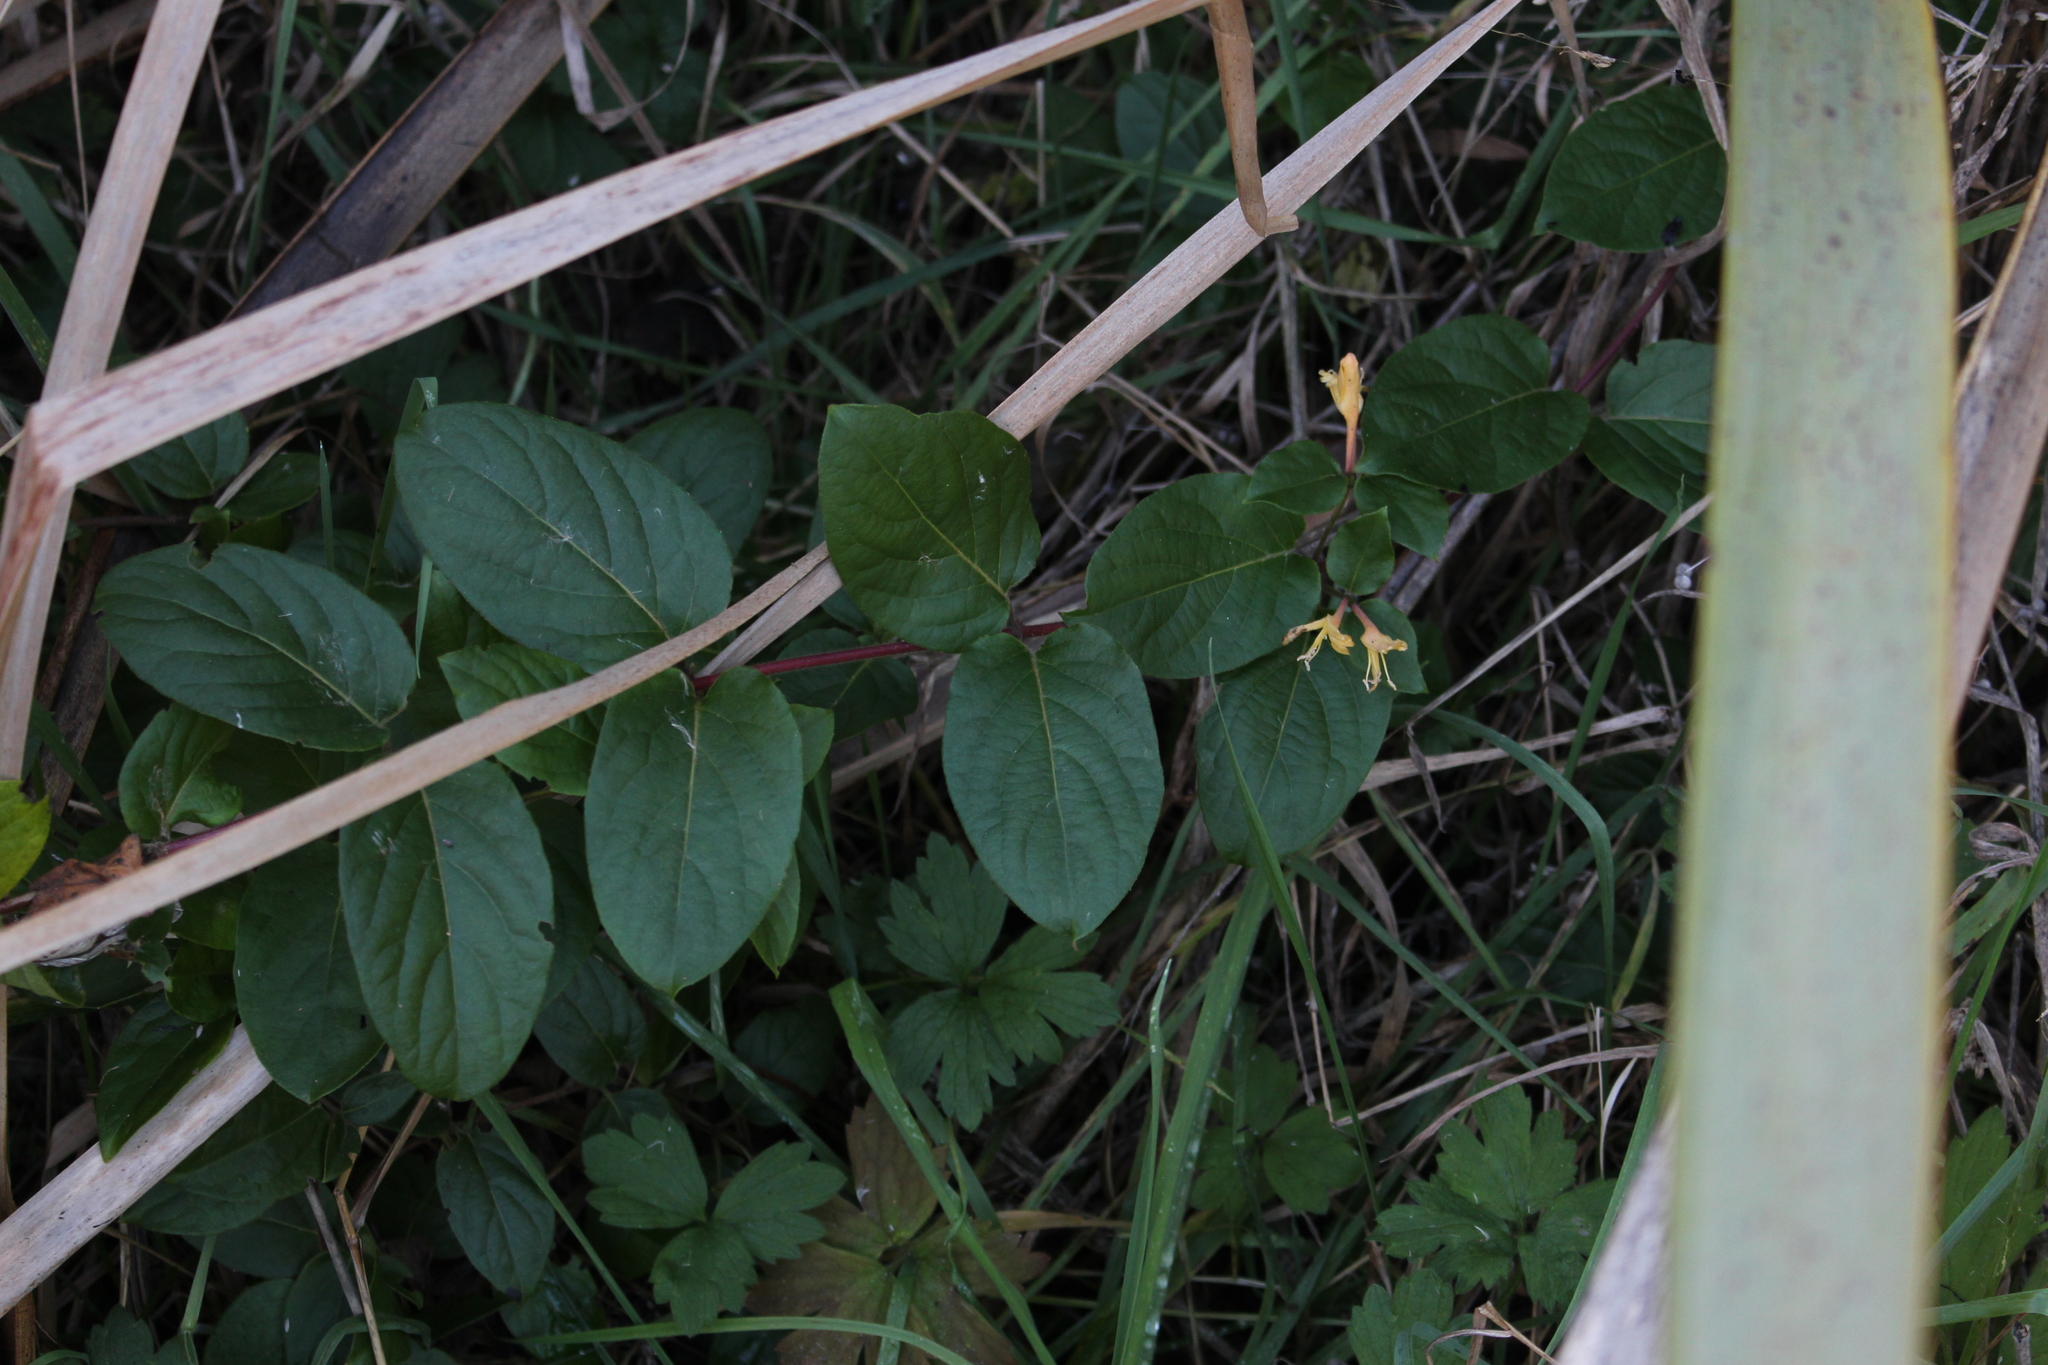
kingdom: Plantae
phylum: Tracheophyta
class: Magnoliopsida
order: Dipsacales
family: Caprifoliaceae
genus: Lonicera
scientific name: Lonicera japonica
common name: Japanese honeysuckle
